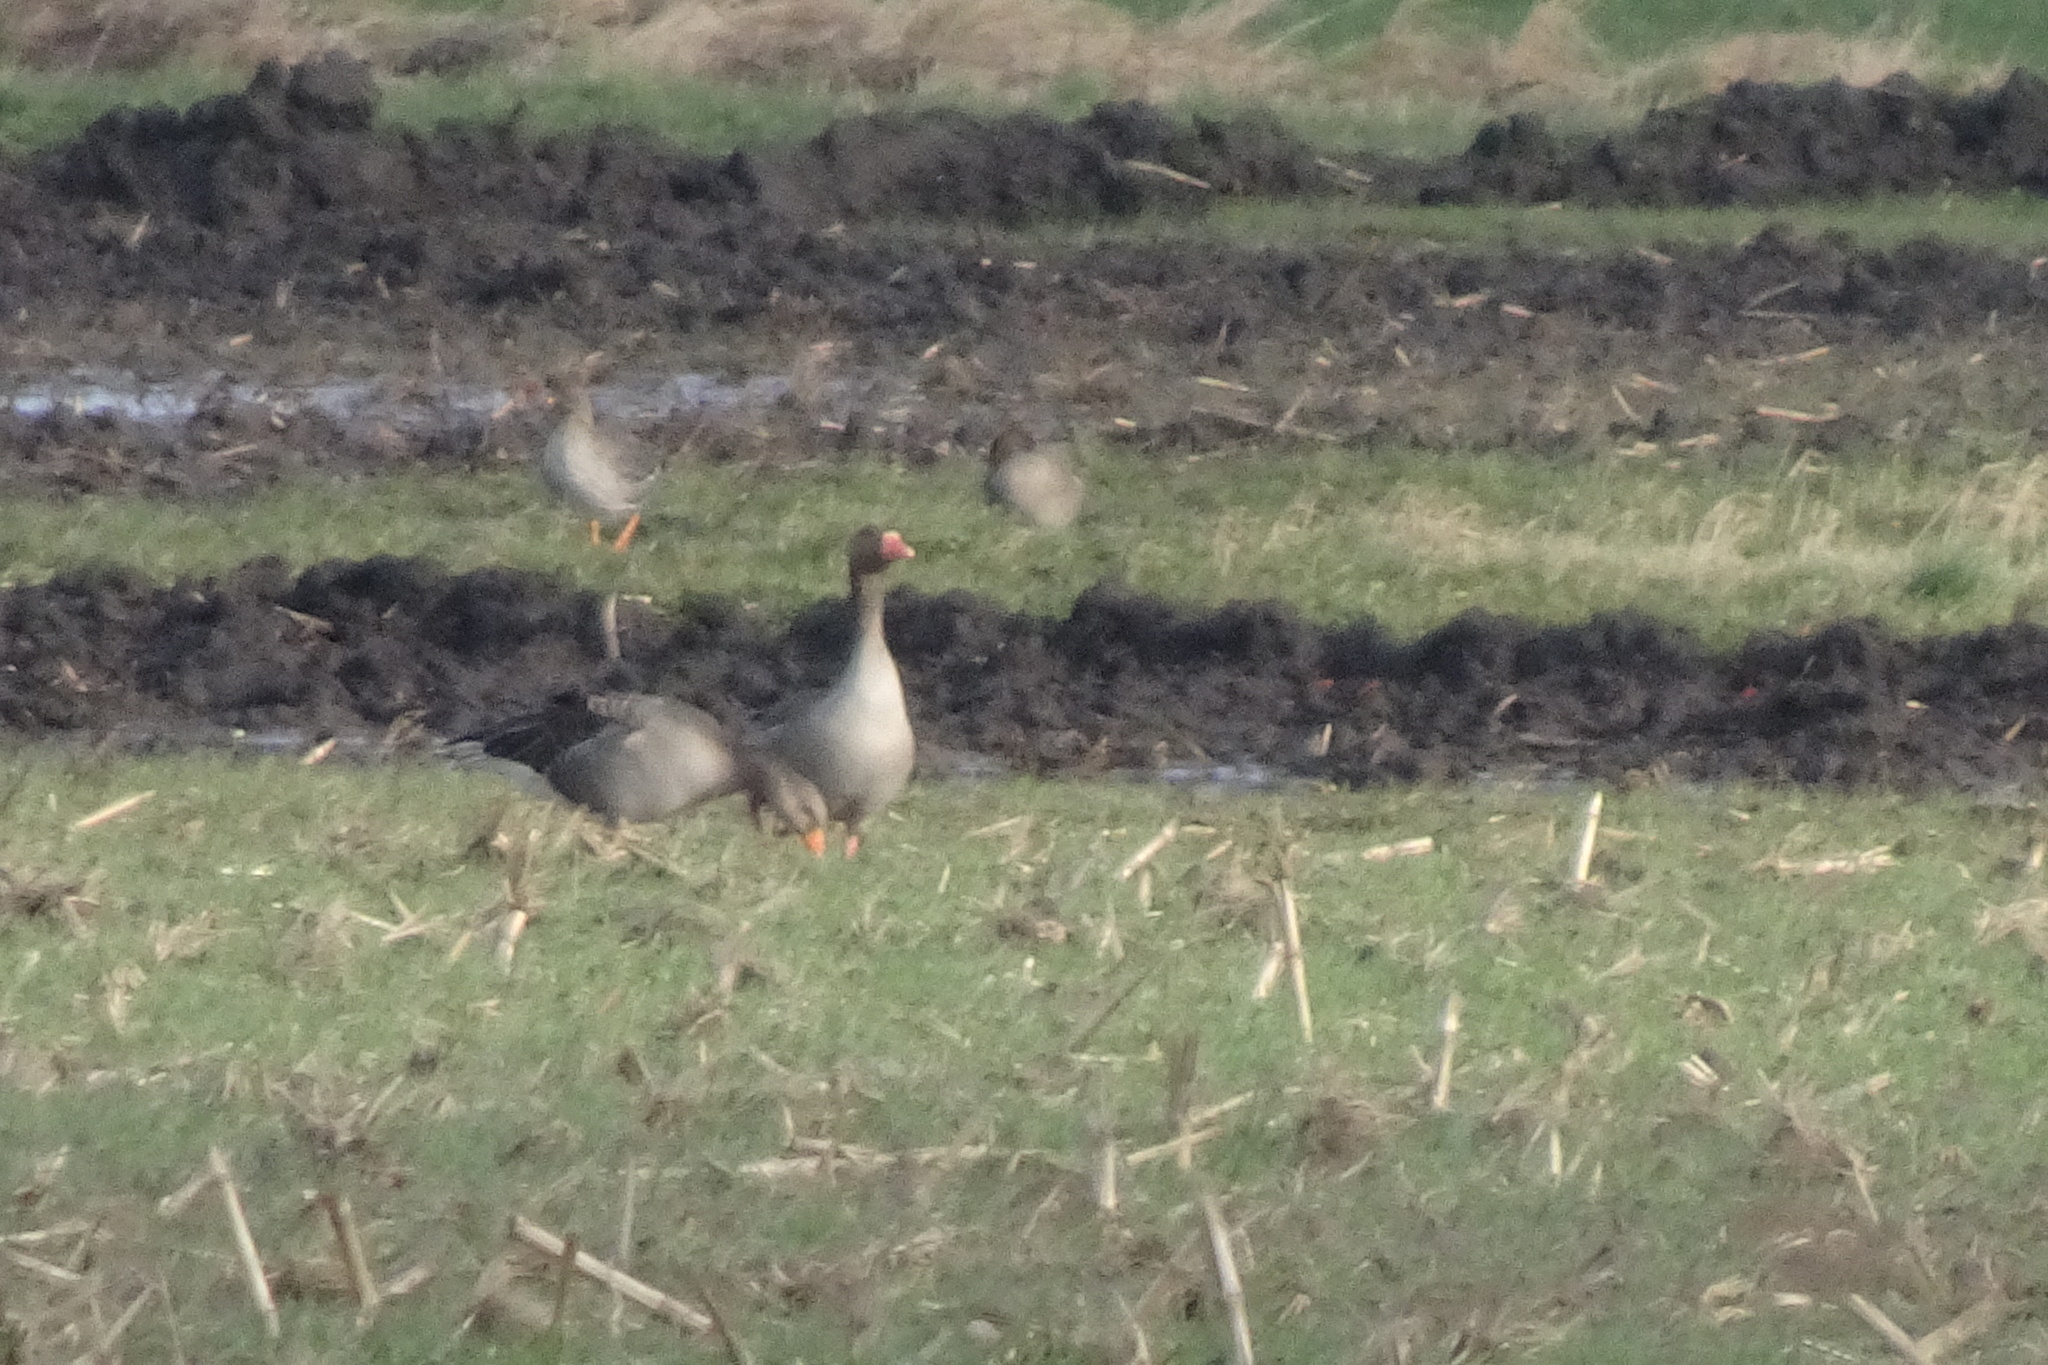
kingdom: Animalia
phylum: Chordata
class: Aves
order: Anseriformes
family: Anatidae
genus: Anser
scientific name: Anser anser
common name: Greylag goose
